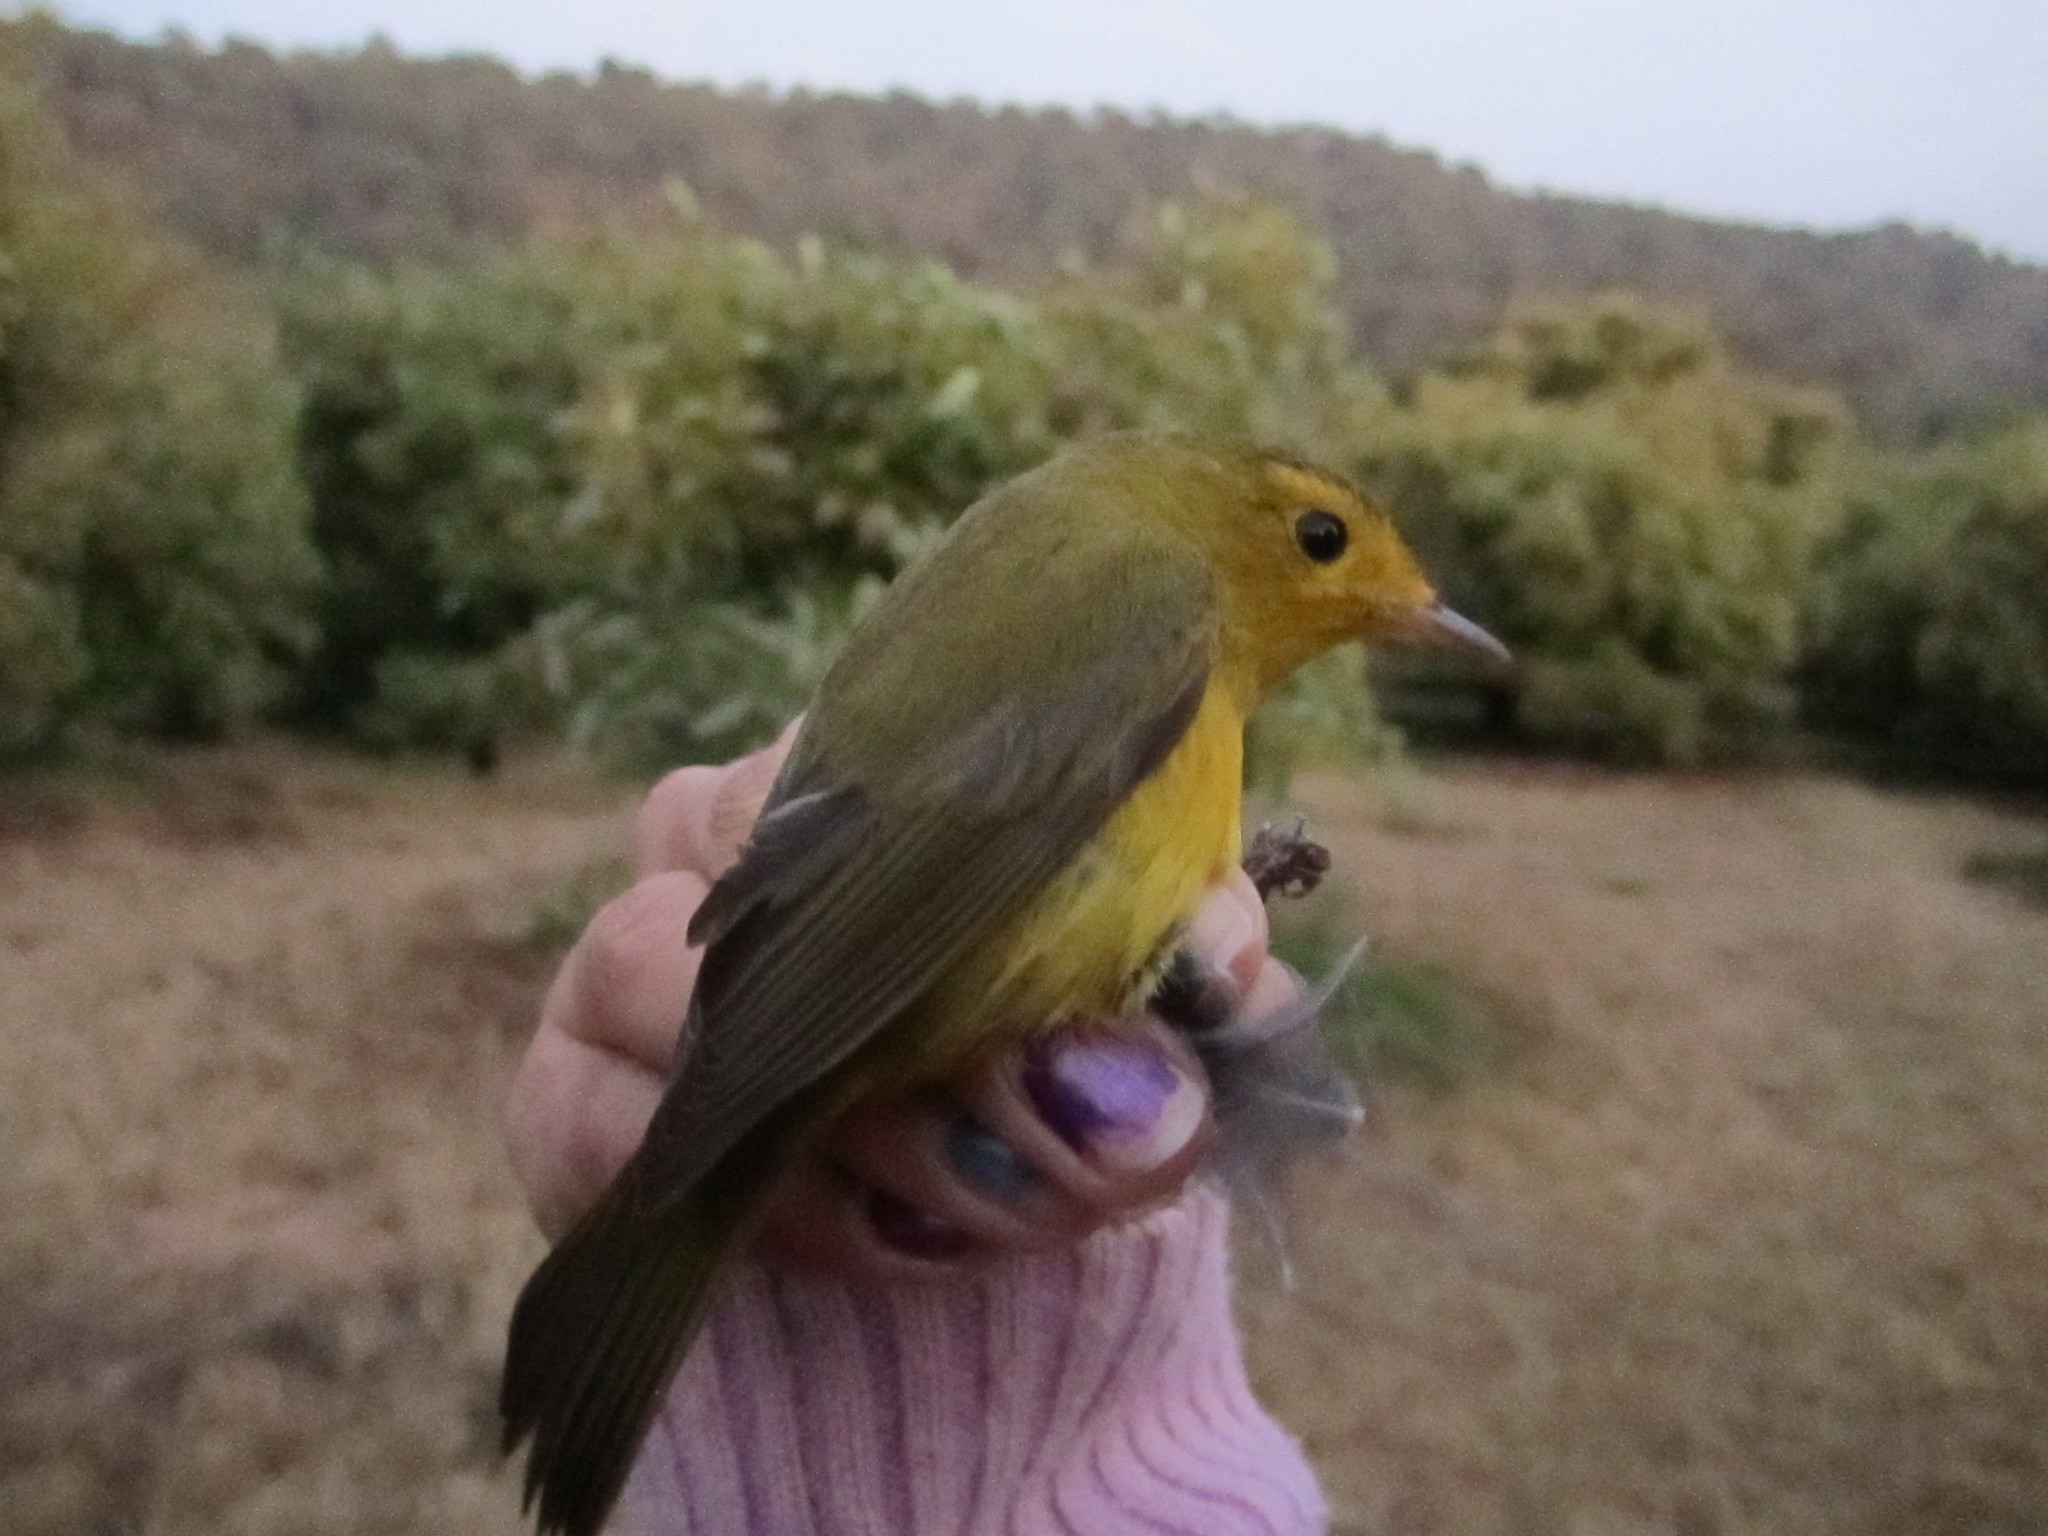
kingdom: Animalia
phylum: Chordata
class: Aves
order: Passeriformes
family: Parulidae
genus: Cardellina
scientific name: Cardellina pusilla
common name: Wilson's warbler
